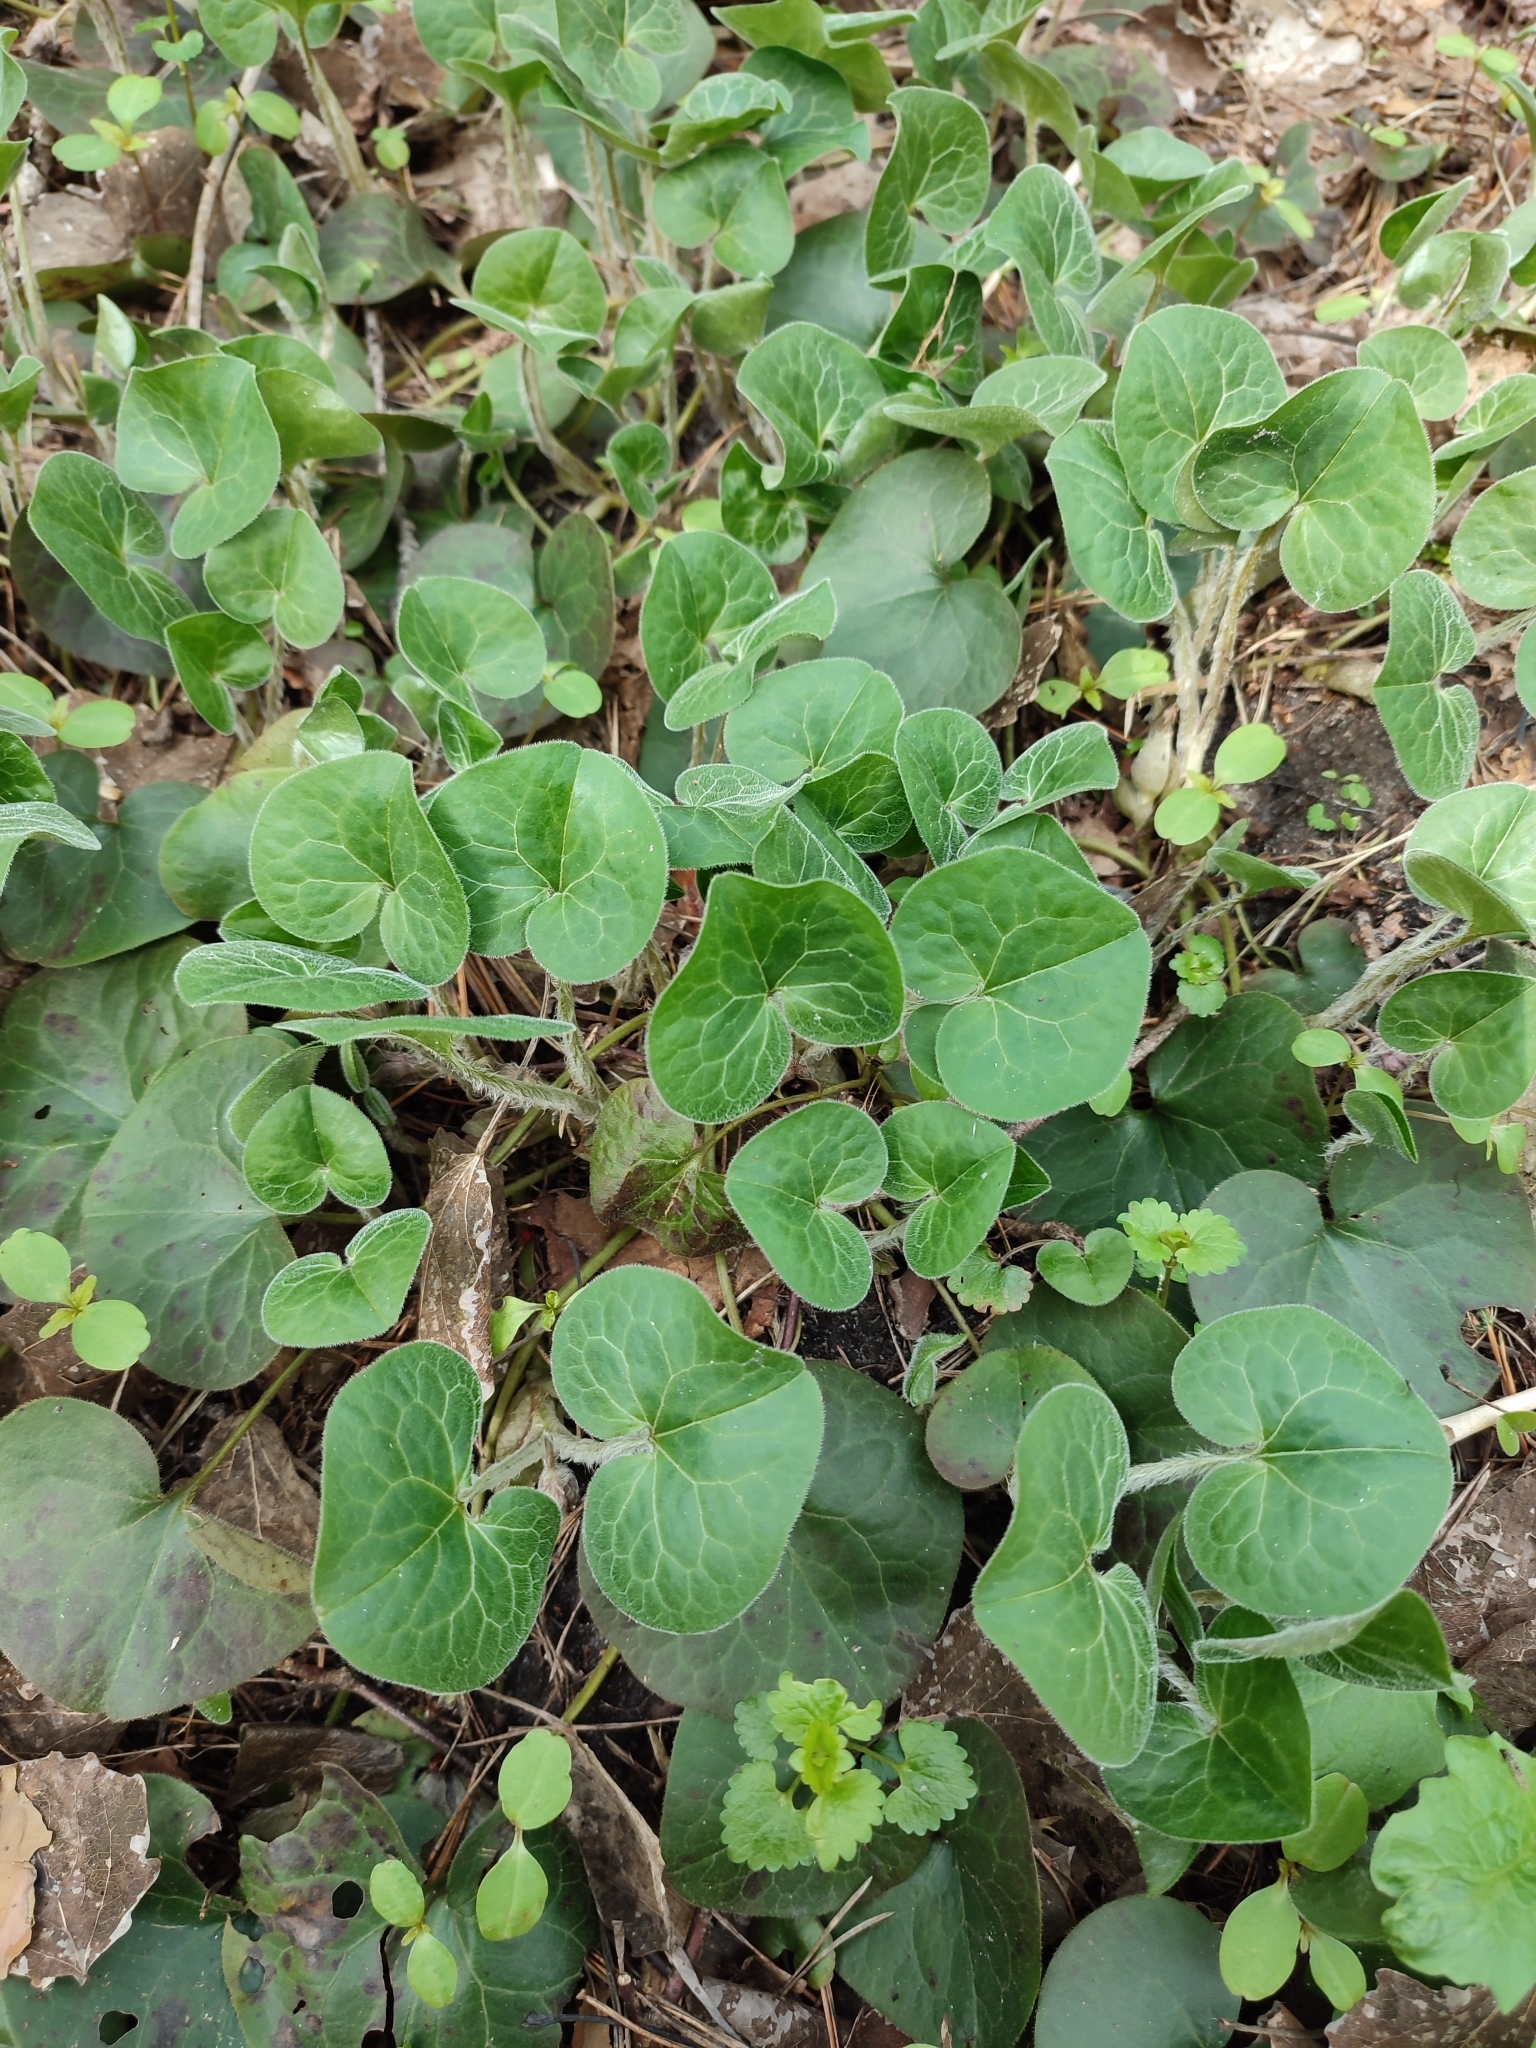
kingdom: Plantae
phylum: Tracheophyta
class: Magnoliopsida
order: Piperales
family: Aristolochiaceae
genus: Asarum
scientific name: Asarum europaeum
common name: Asarabacca
